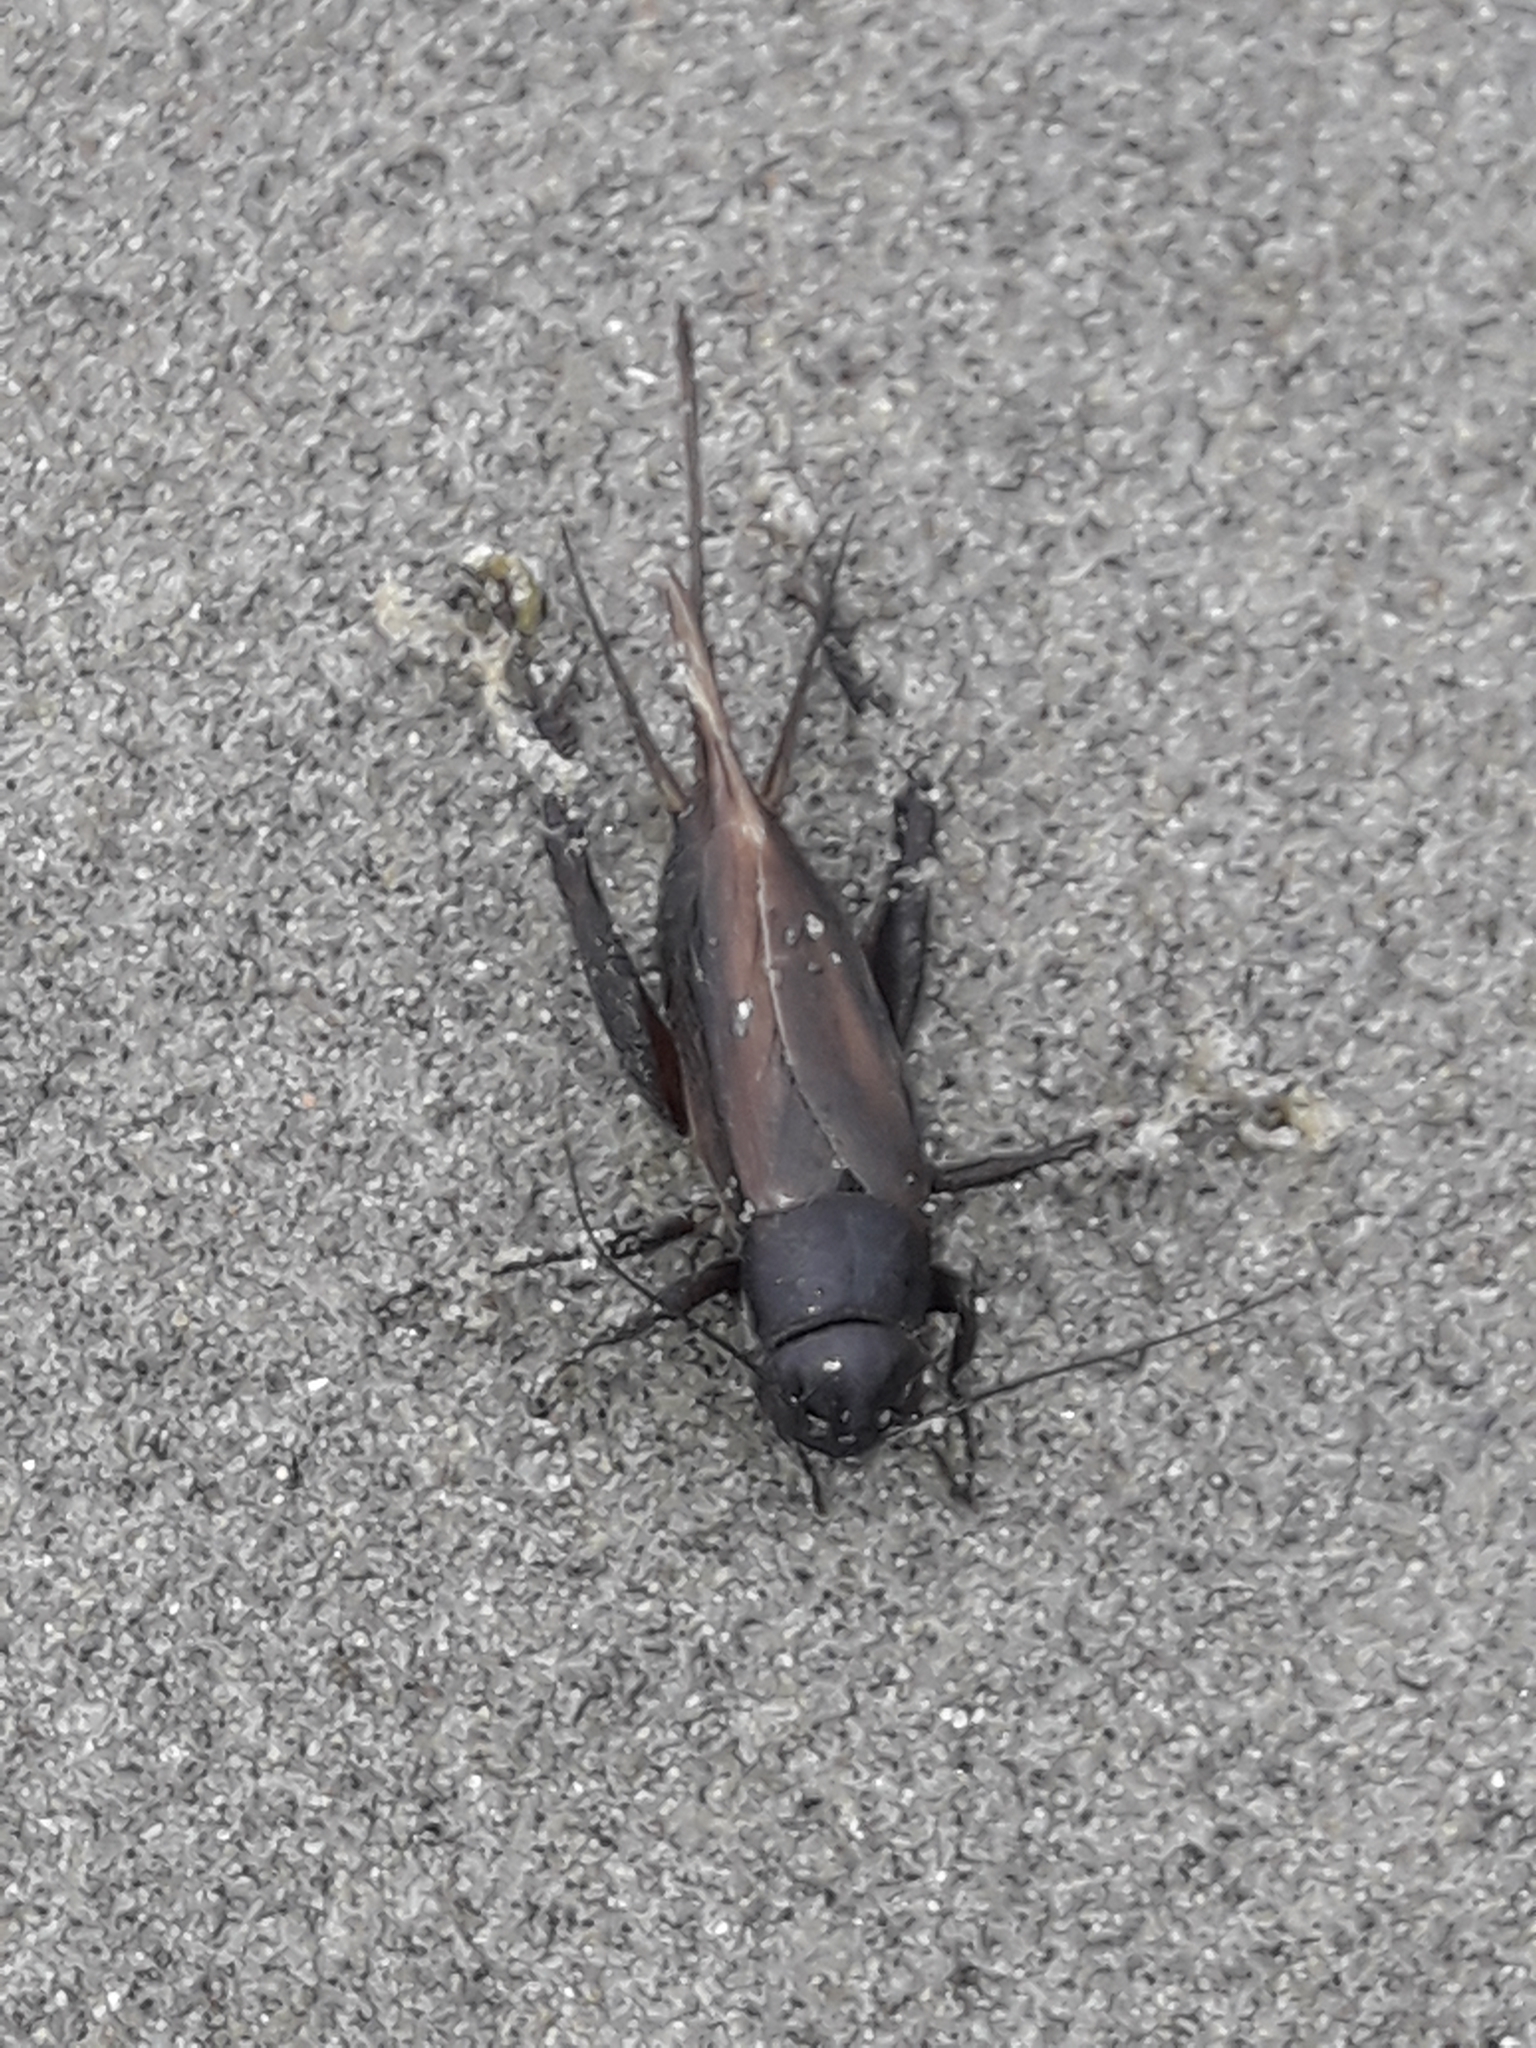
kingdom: Animalia
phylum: Arthropoda
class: Insecta
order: Orthoptera
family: Gryllidae
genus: Teleogryllus
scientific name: Teleogryllus commodus
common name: Black field cricket
